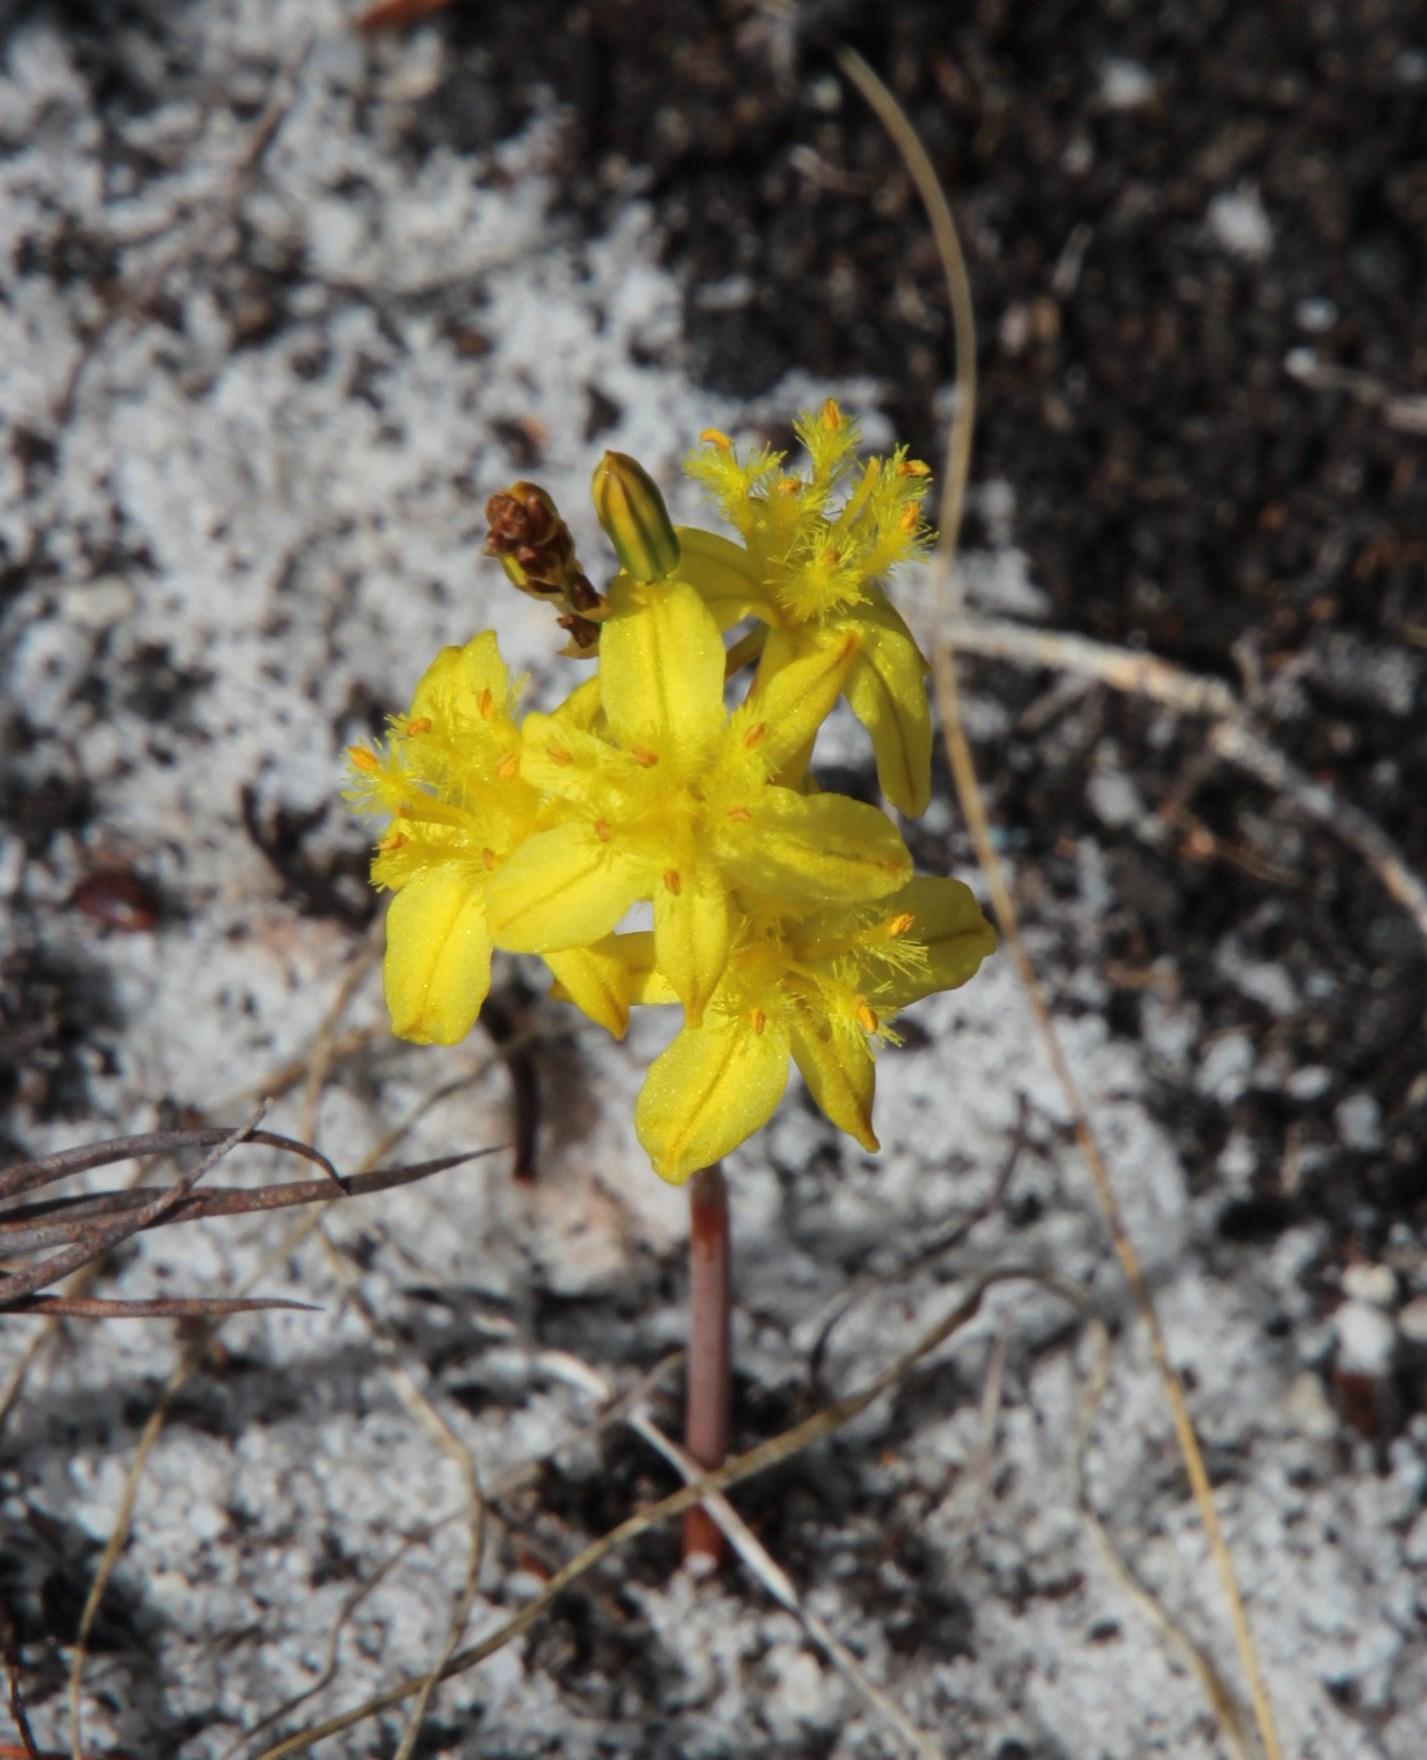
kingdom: Plantae
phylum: Tracheophyta
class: Liliopsida
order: Asparagales
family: Asphodelaceae
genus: Bulbine
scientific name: Bulbine favosa
